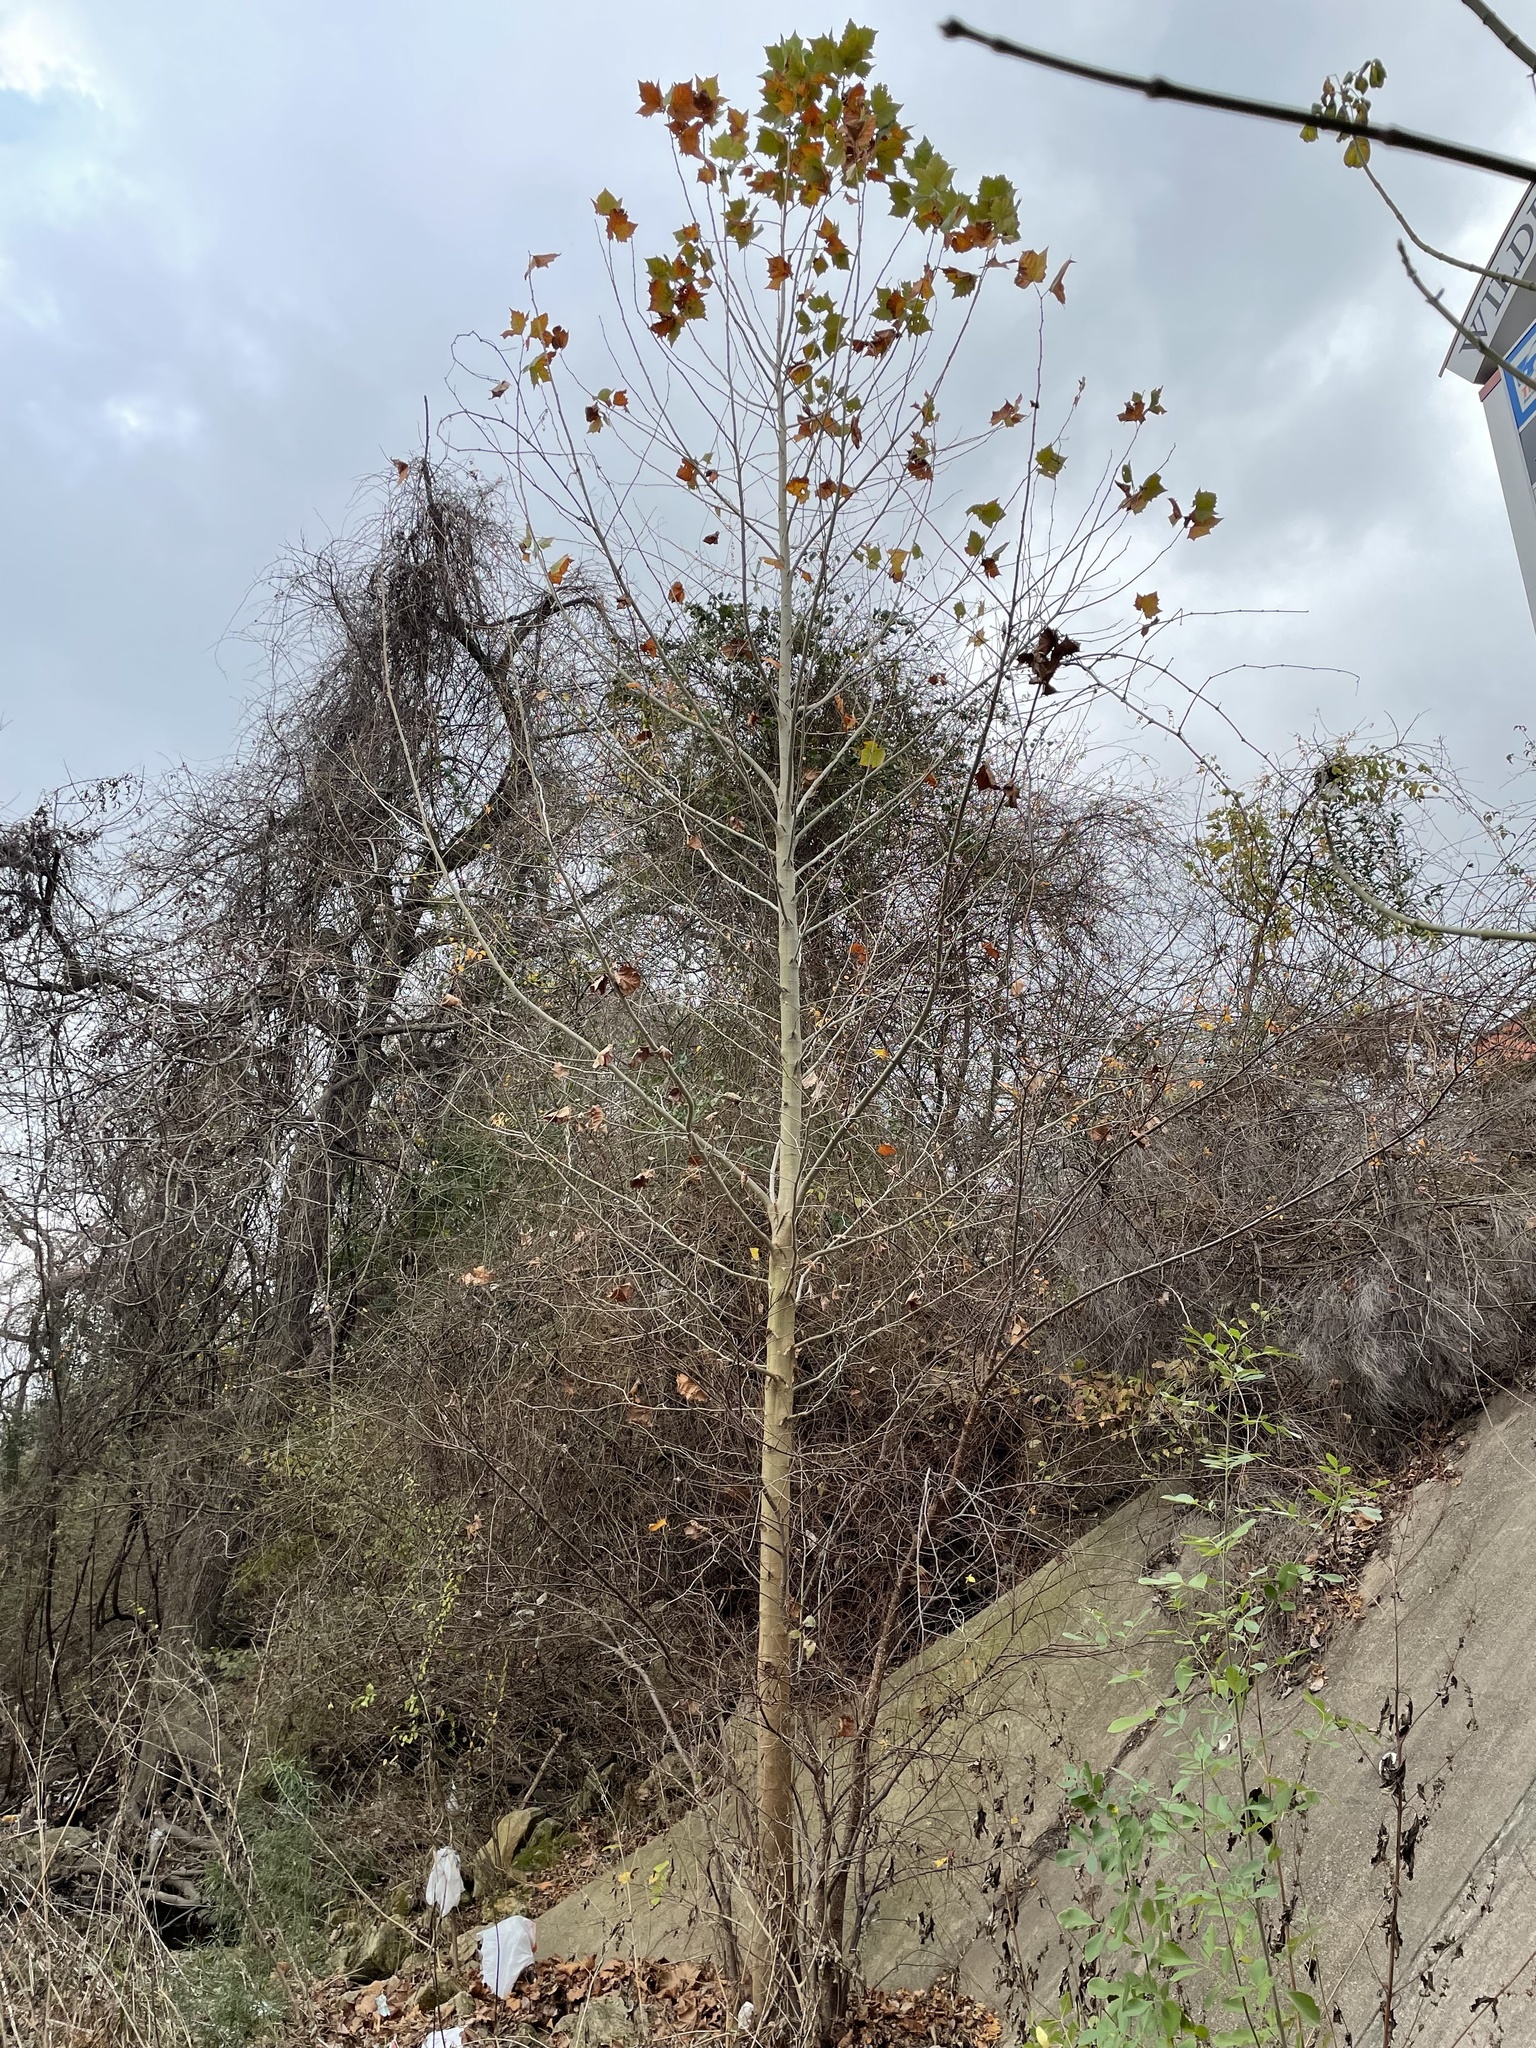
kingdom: Plantae
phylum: Tracheophyta
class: Magnoliopsida
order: Proteales
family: Platanaceae
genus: Platanus
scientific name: Platanus occidentalis
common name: American sycamore
